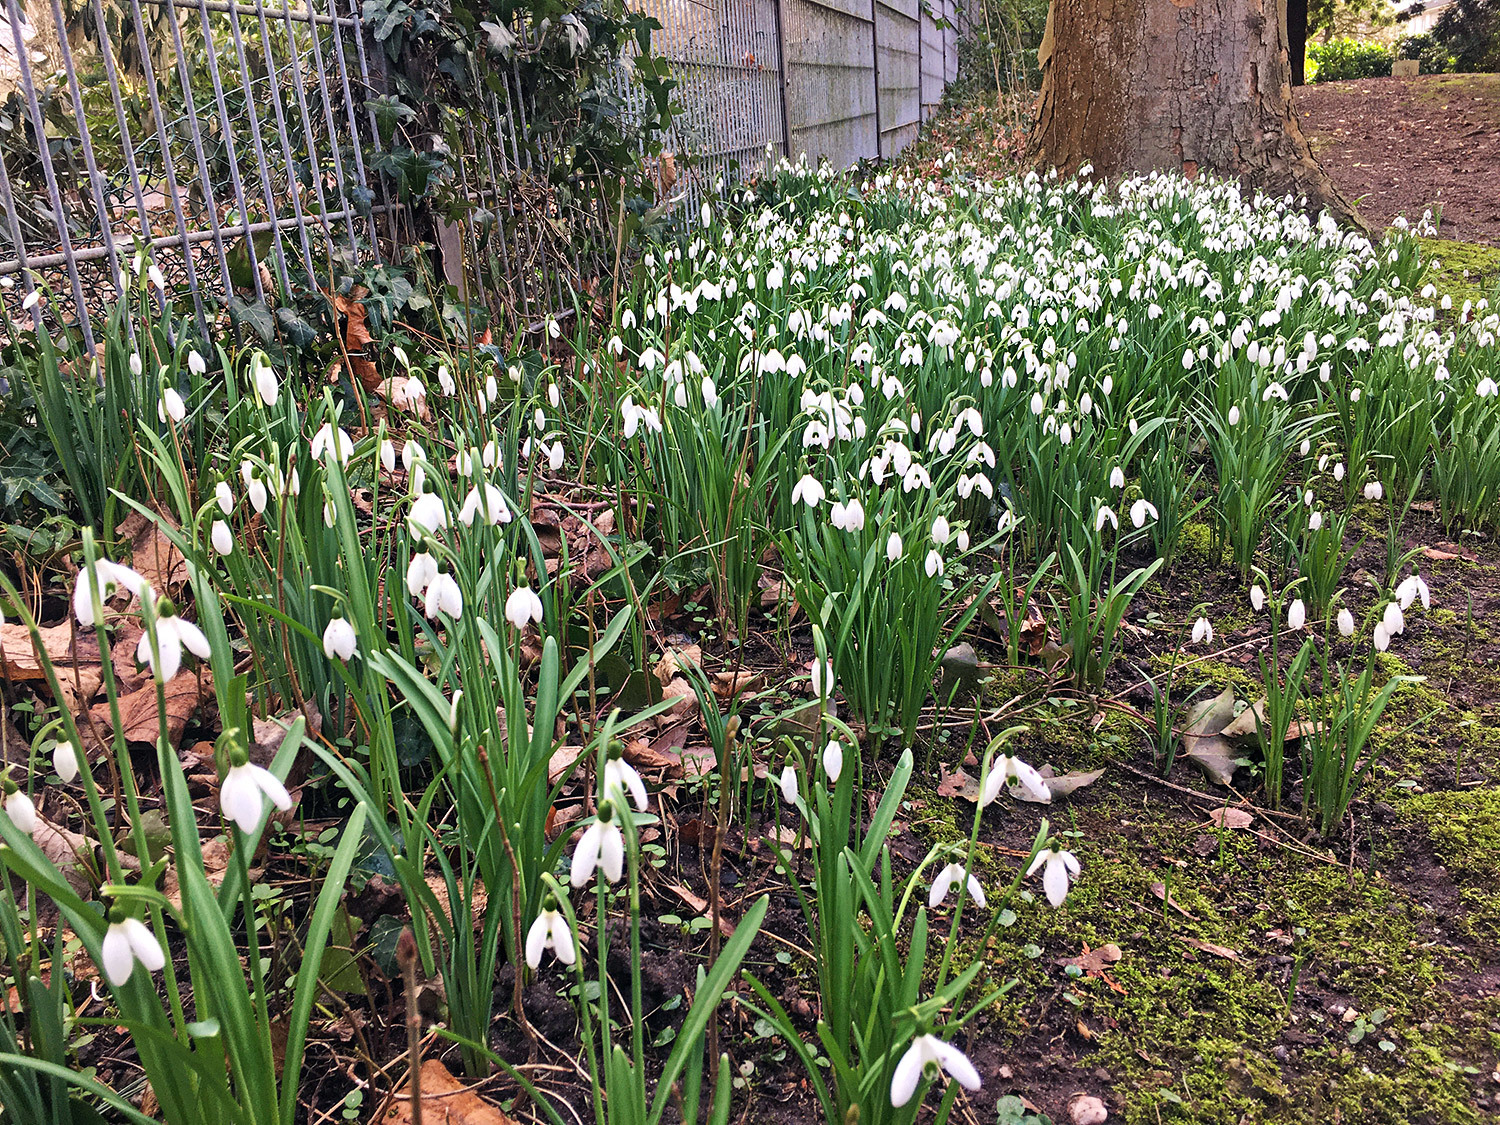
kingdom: Plantae
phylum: Tracheophyta
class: Liliopsida
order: Asparagales
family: Amaryllidaceae
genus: Galanthus
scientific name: Galanthus nivalis
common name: Snowdrop
